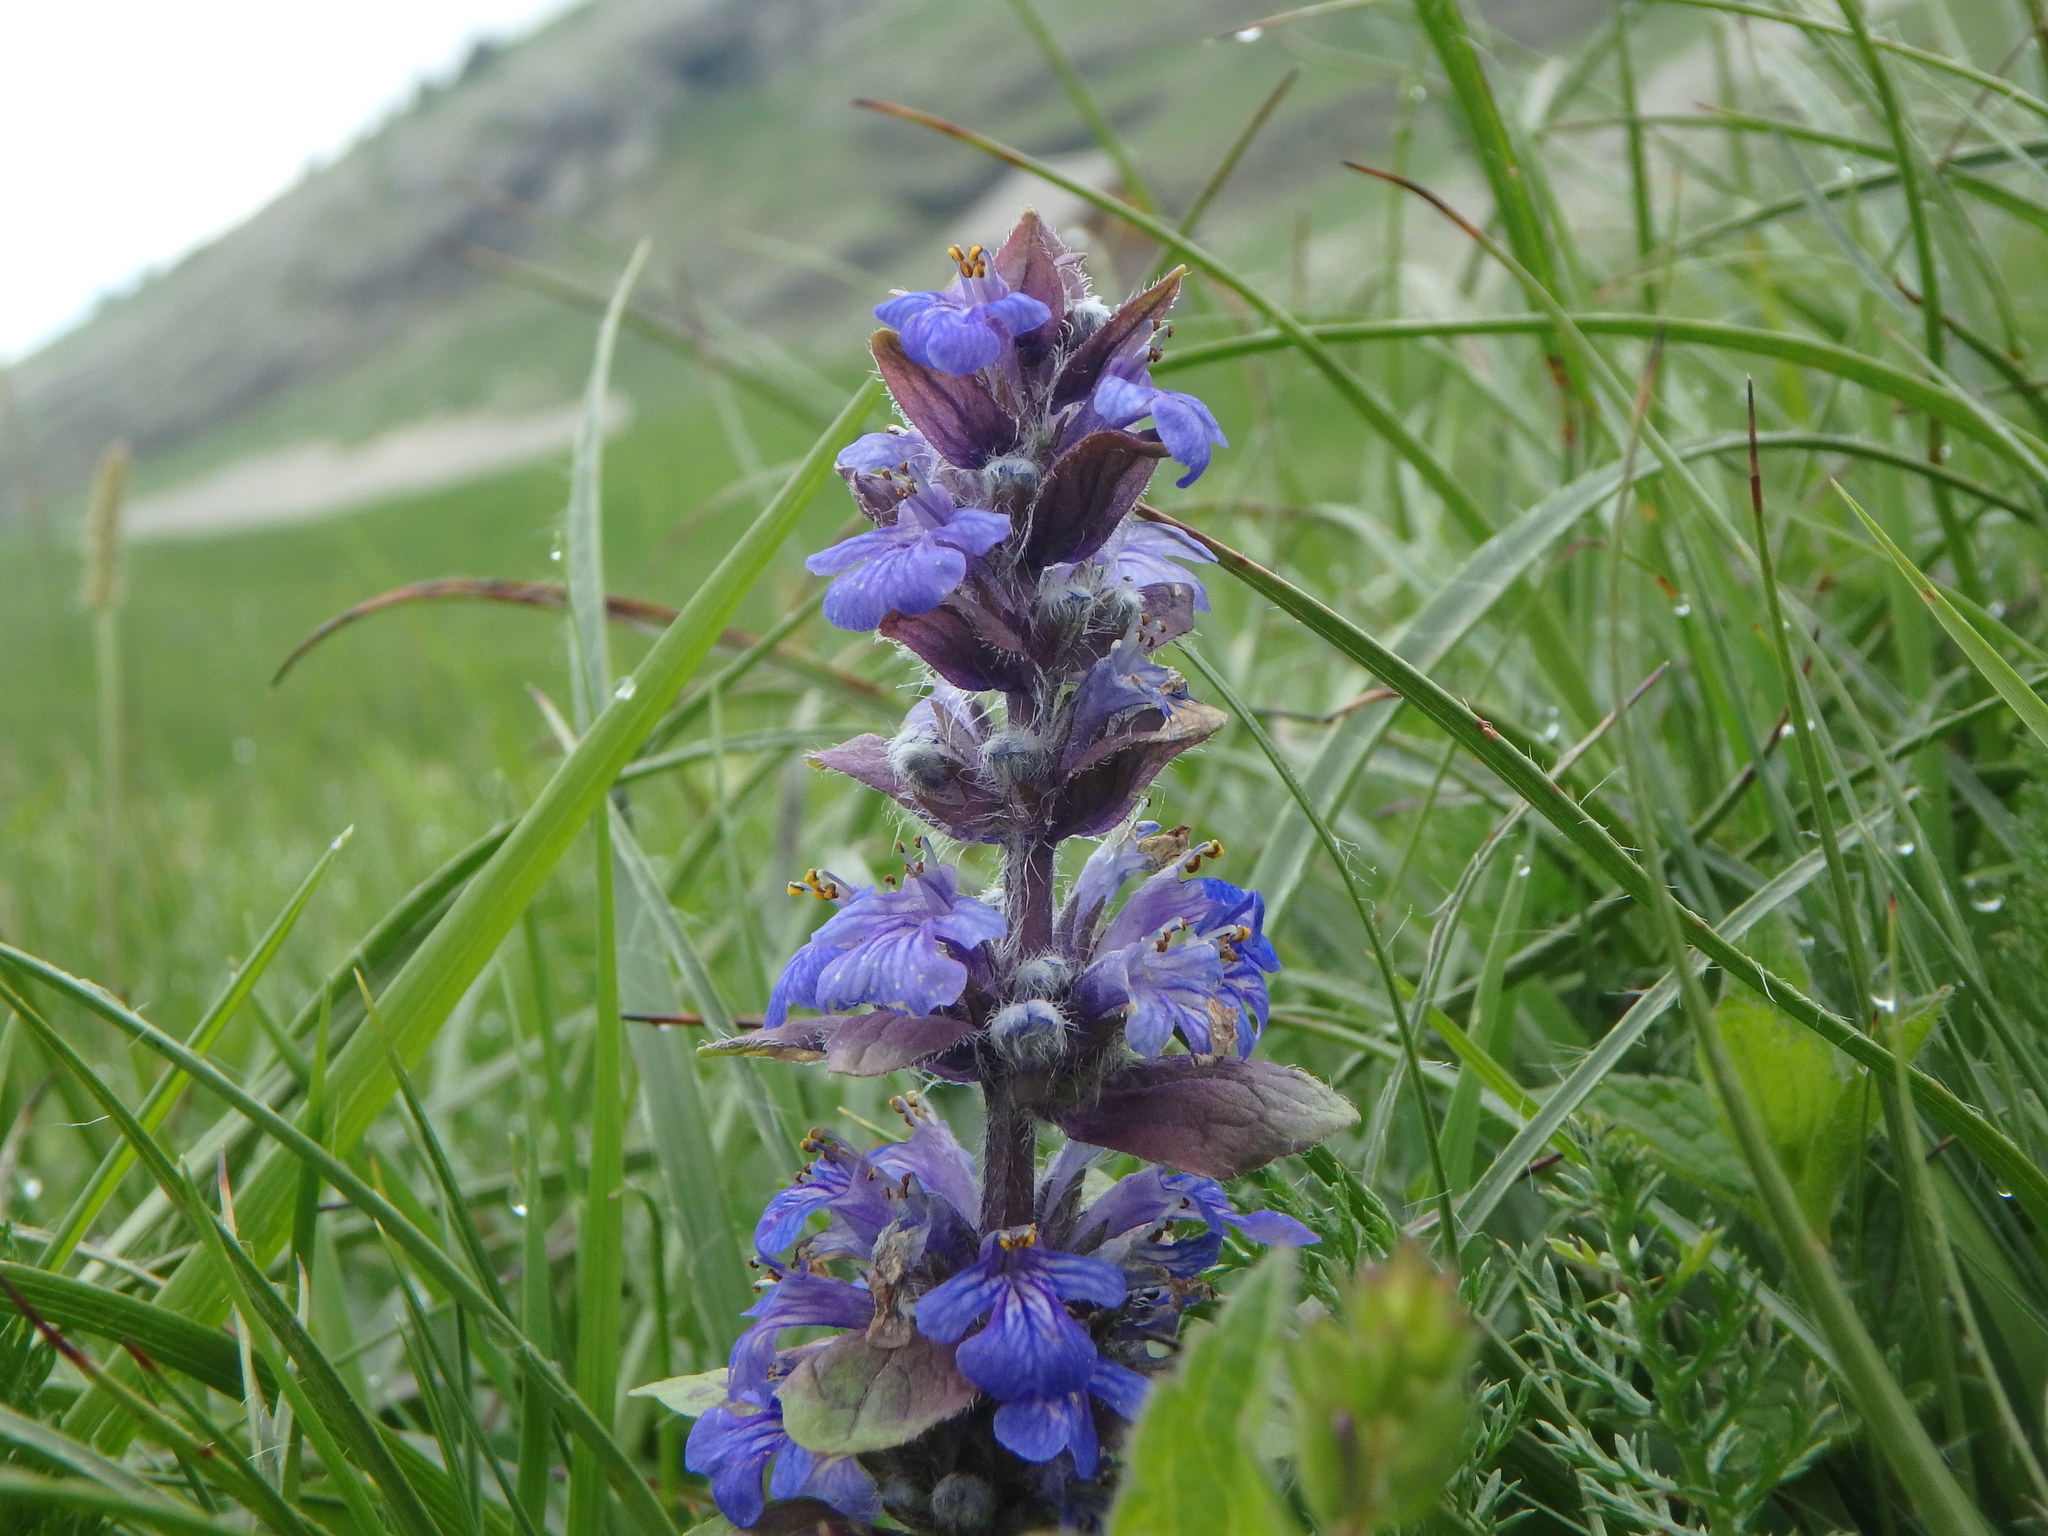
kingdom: Plantae
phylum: Tracheophyta
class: Magnoliopsida
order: Lamiales
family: Lamiaceae
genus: Ajuga
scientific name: Ajuga reptans
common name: Bugle
